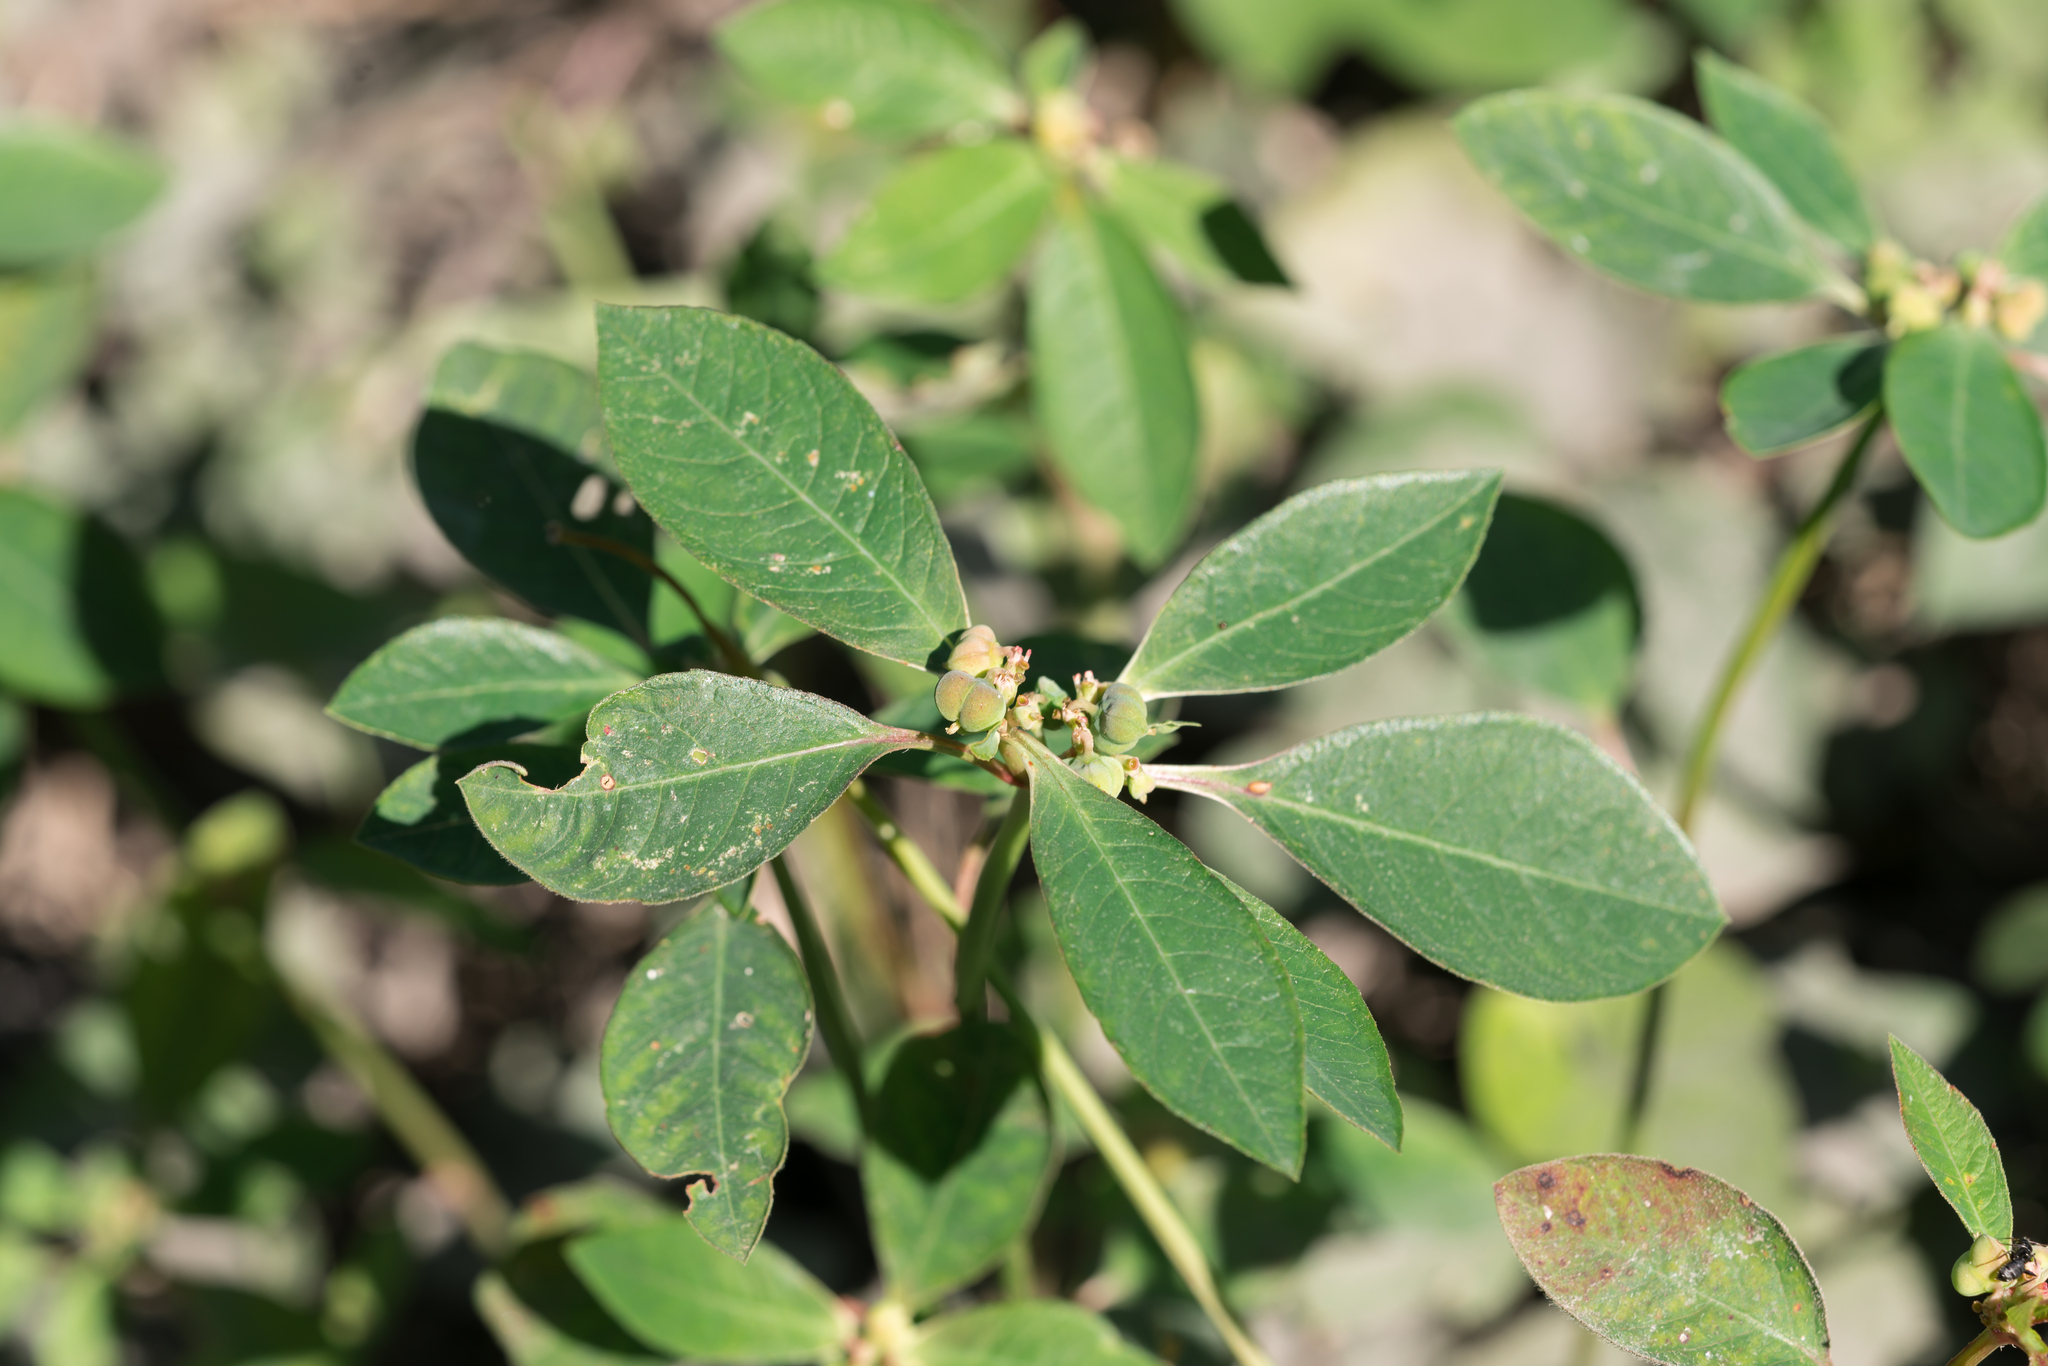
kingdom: Plantae
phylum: Tracheophyta
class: Magnoliopsida
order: Malpighiales
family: Euphorbiaceae
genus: Euphorbia
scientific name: Euphorbia heterophylla
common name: Mexican fireplant
